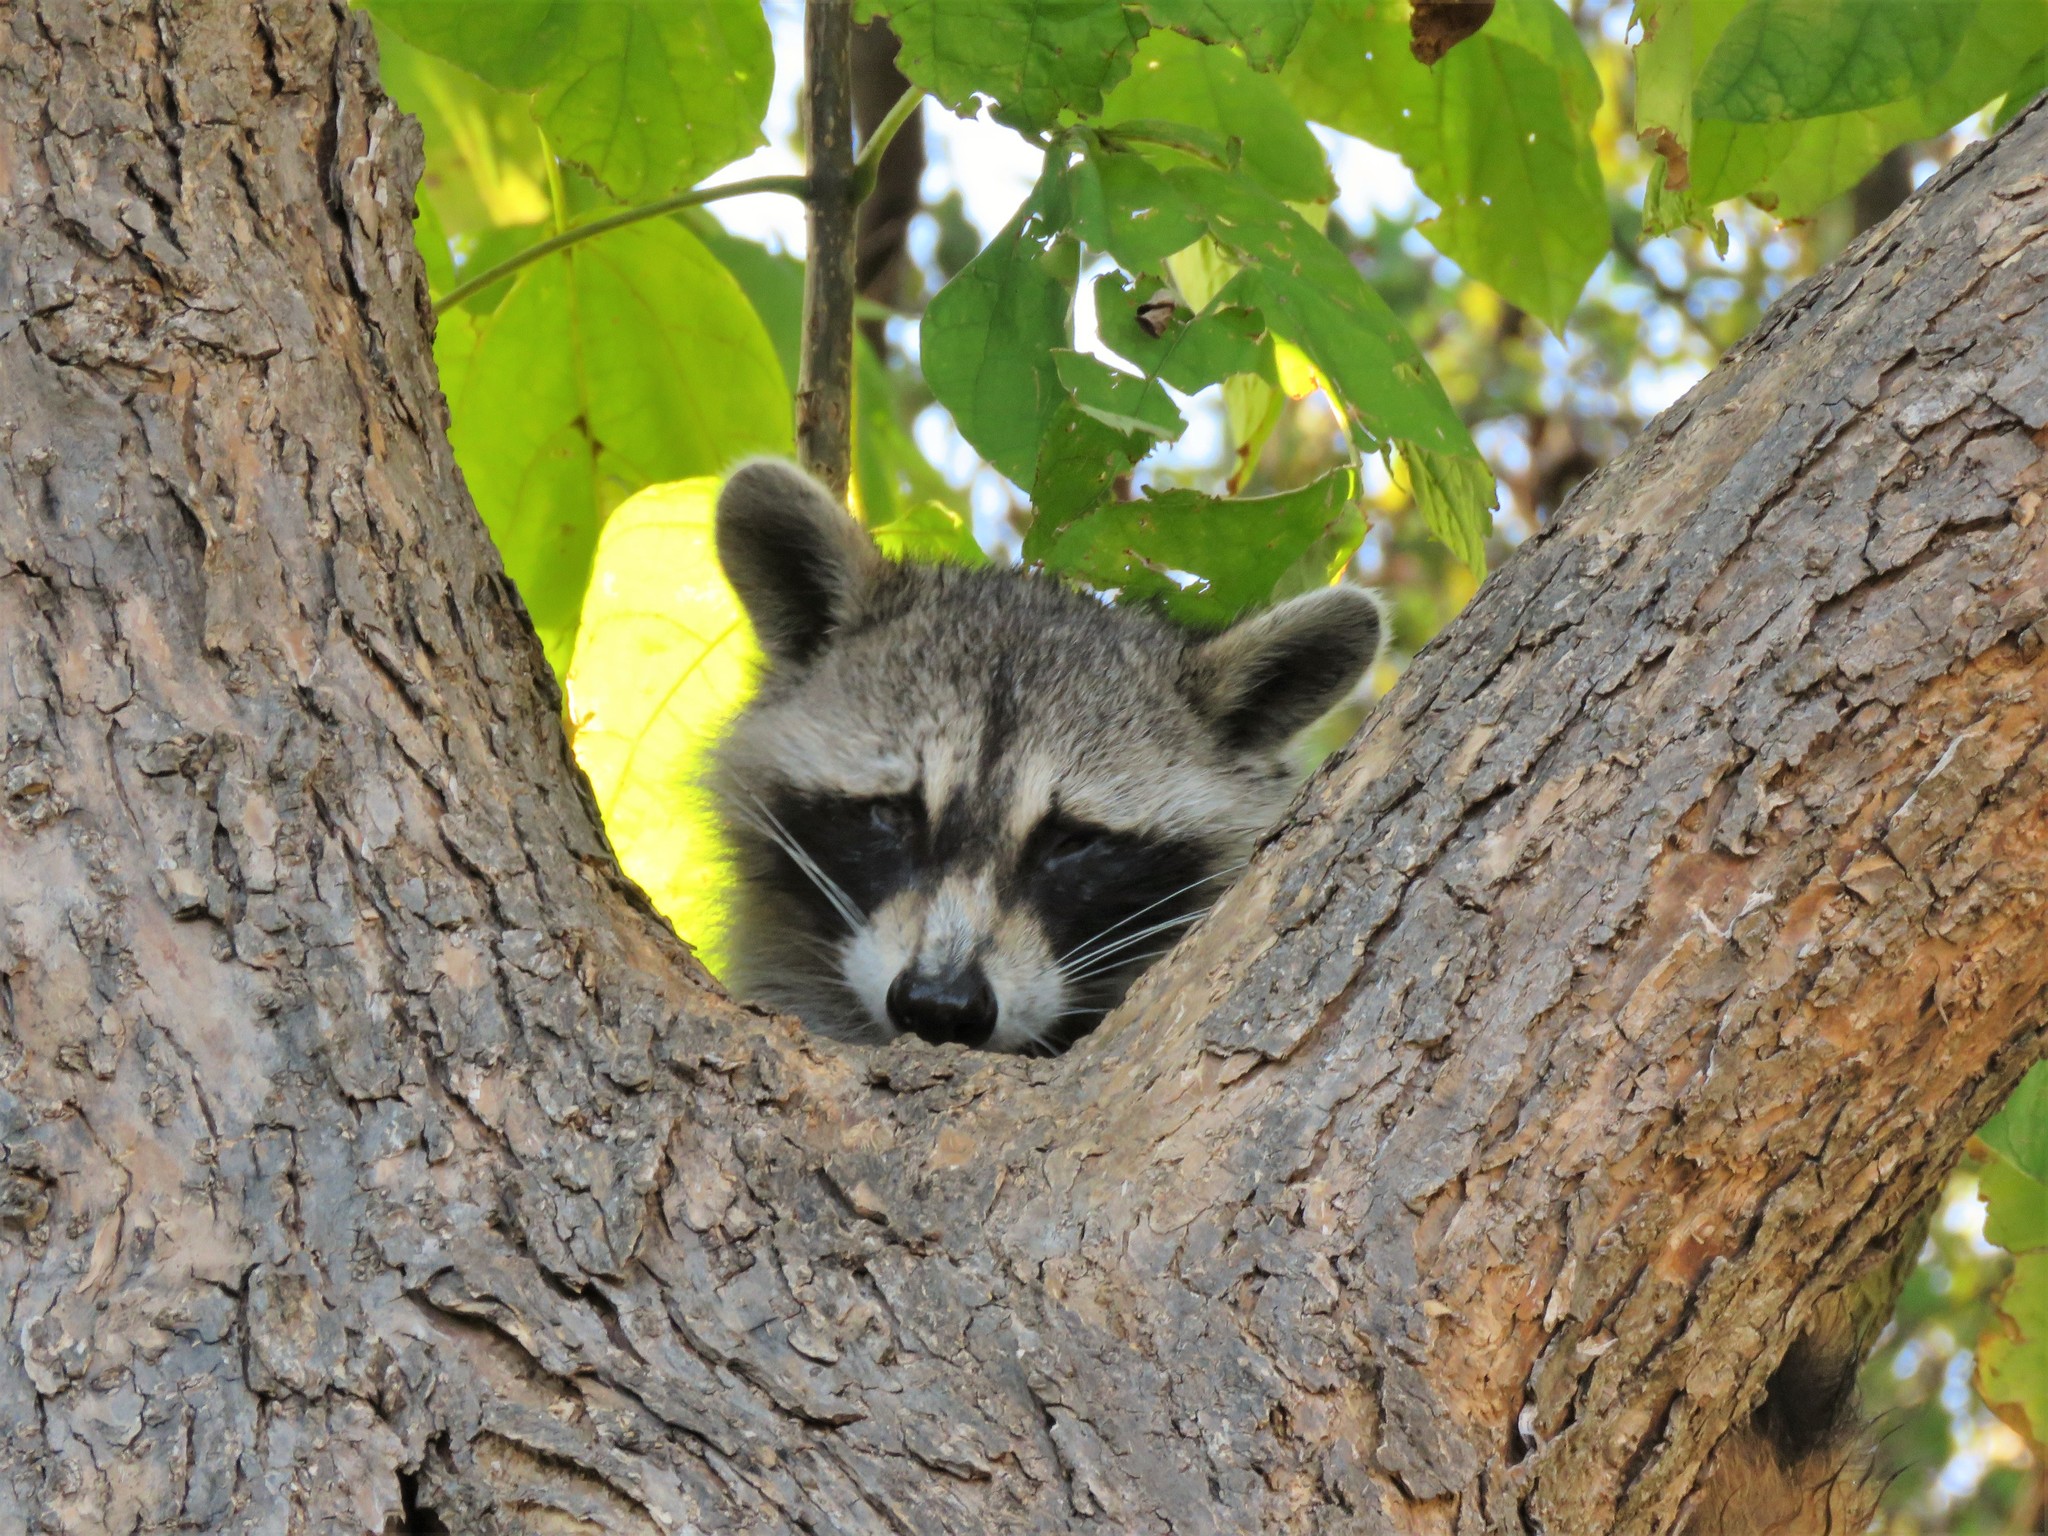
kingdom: Animalia
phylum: Chordata
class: Mammalia
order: Carnivora
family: Procyonidae
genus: Procyon
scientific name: Procyon lotor
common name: Raccoon
